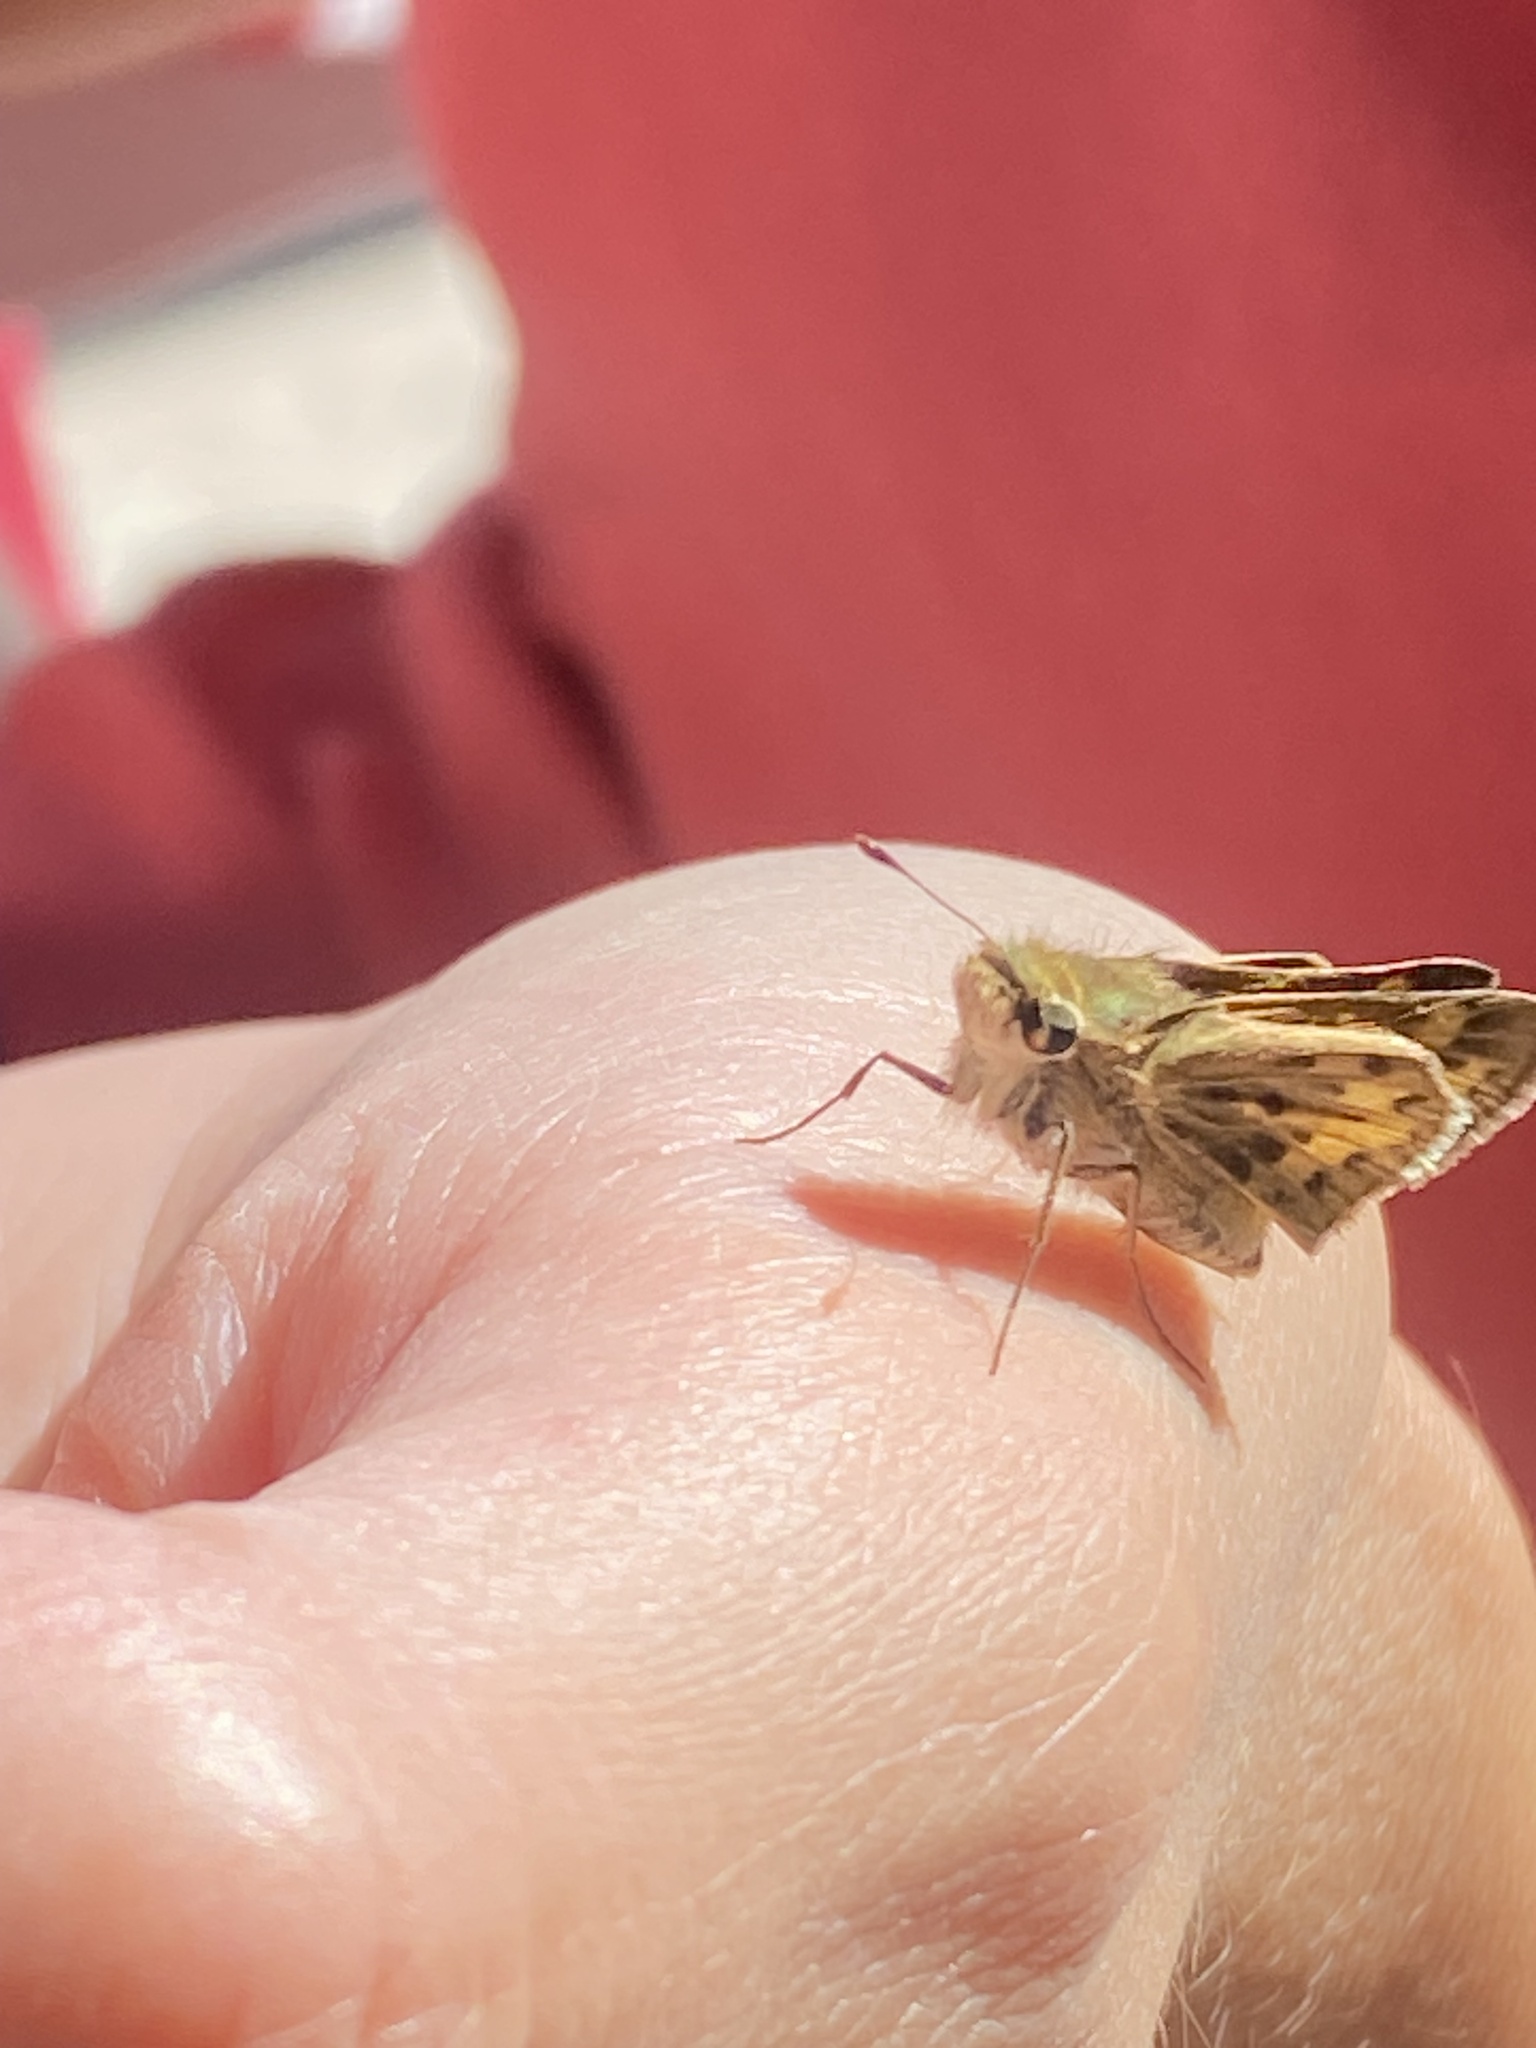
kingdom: Animalia
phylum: Arthropoda
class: Insecta
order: Lepidoptera
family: Hesperiidae
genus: Hylephila
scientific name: Hylephila phyleus
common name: Fiery skipper
